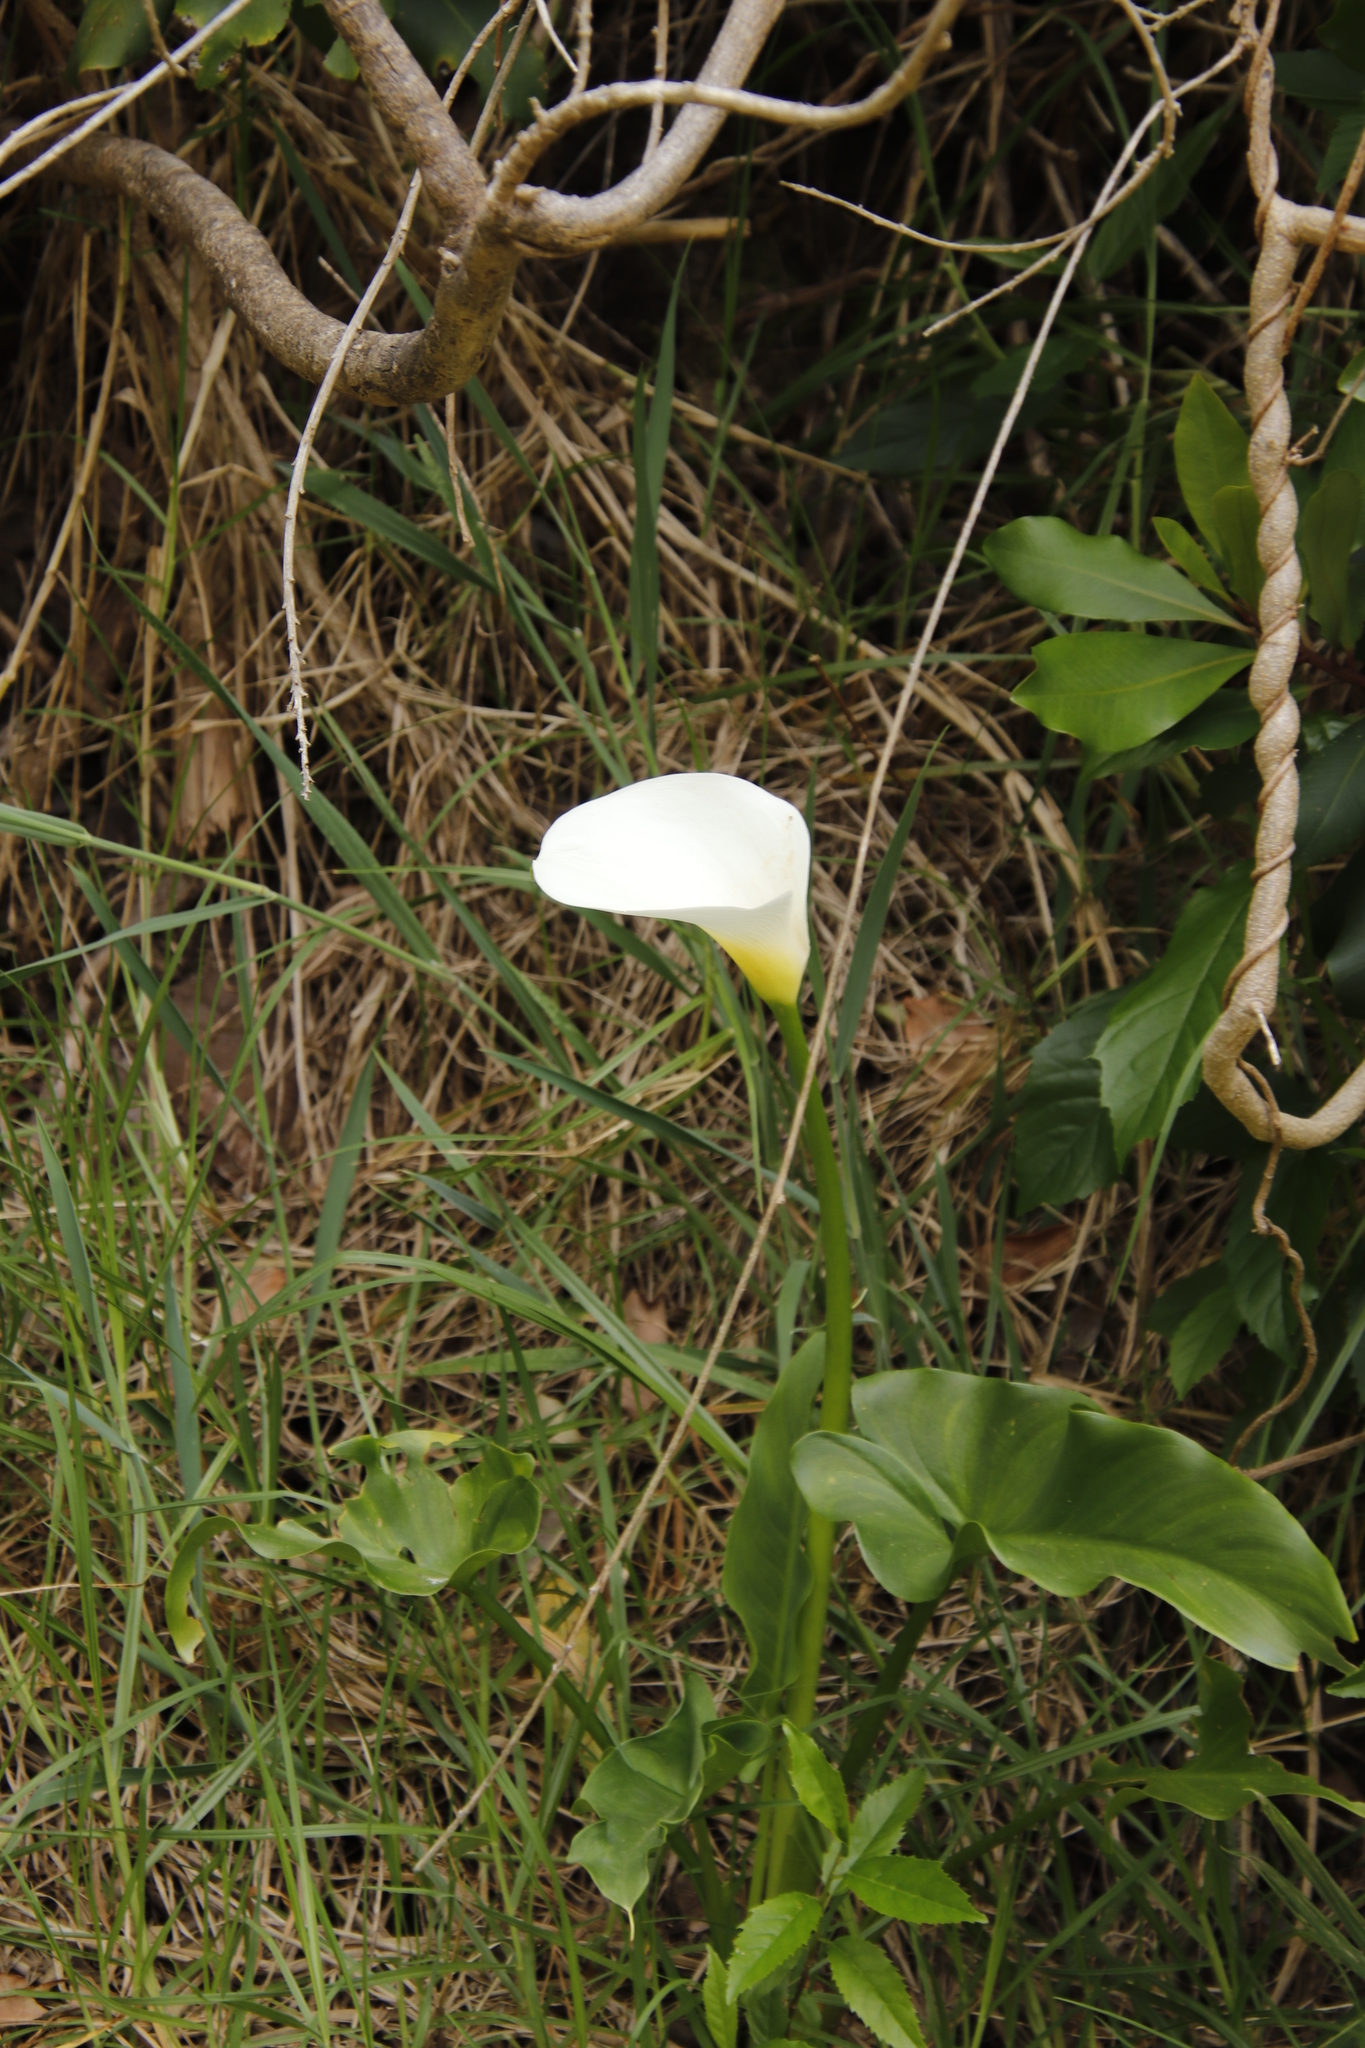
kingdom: Plantae
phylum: Tracheophyta
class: Liliopsida
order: Alismatales
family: Araceae
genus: Zantedeschia
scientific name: Zantedeschia aethiopica
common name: Altar-lily
